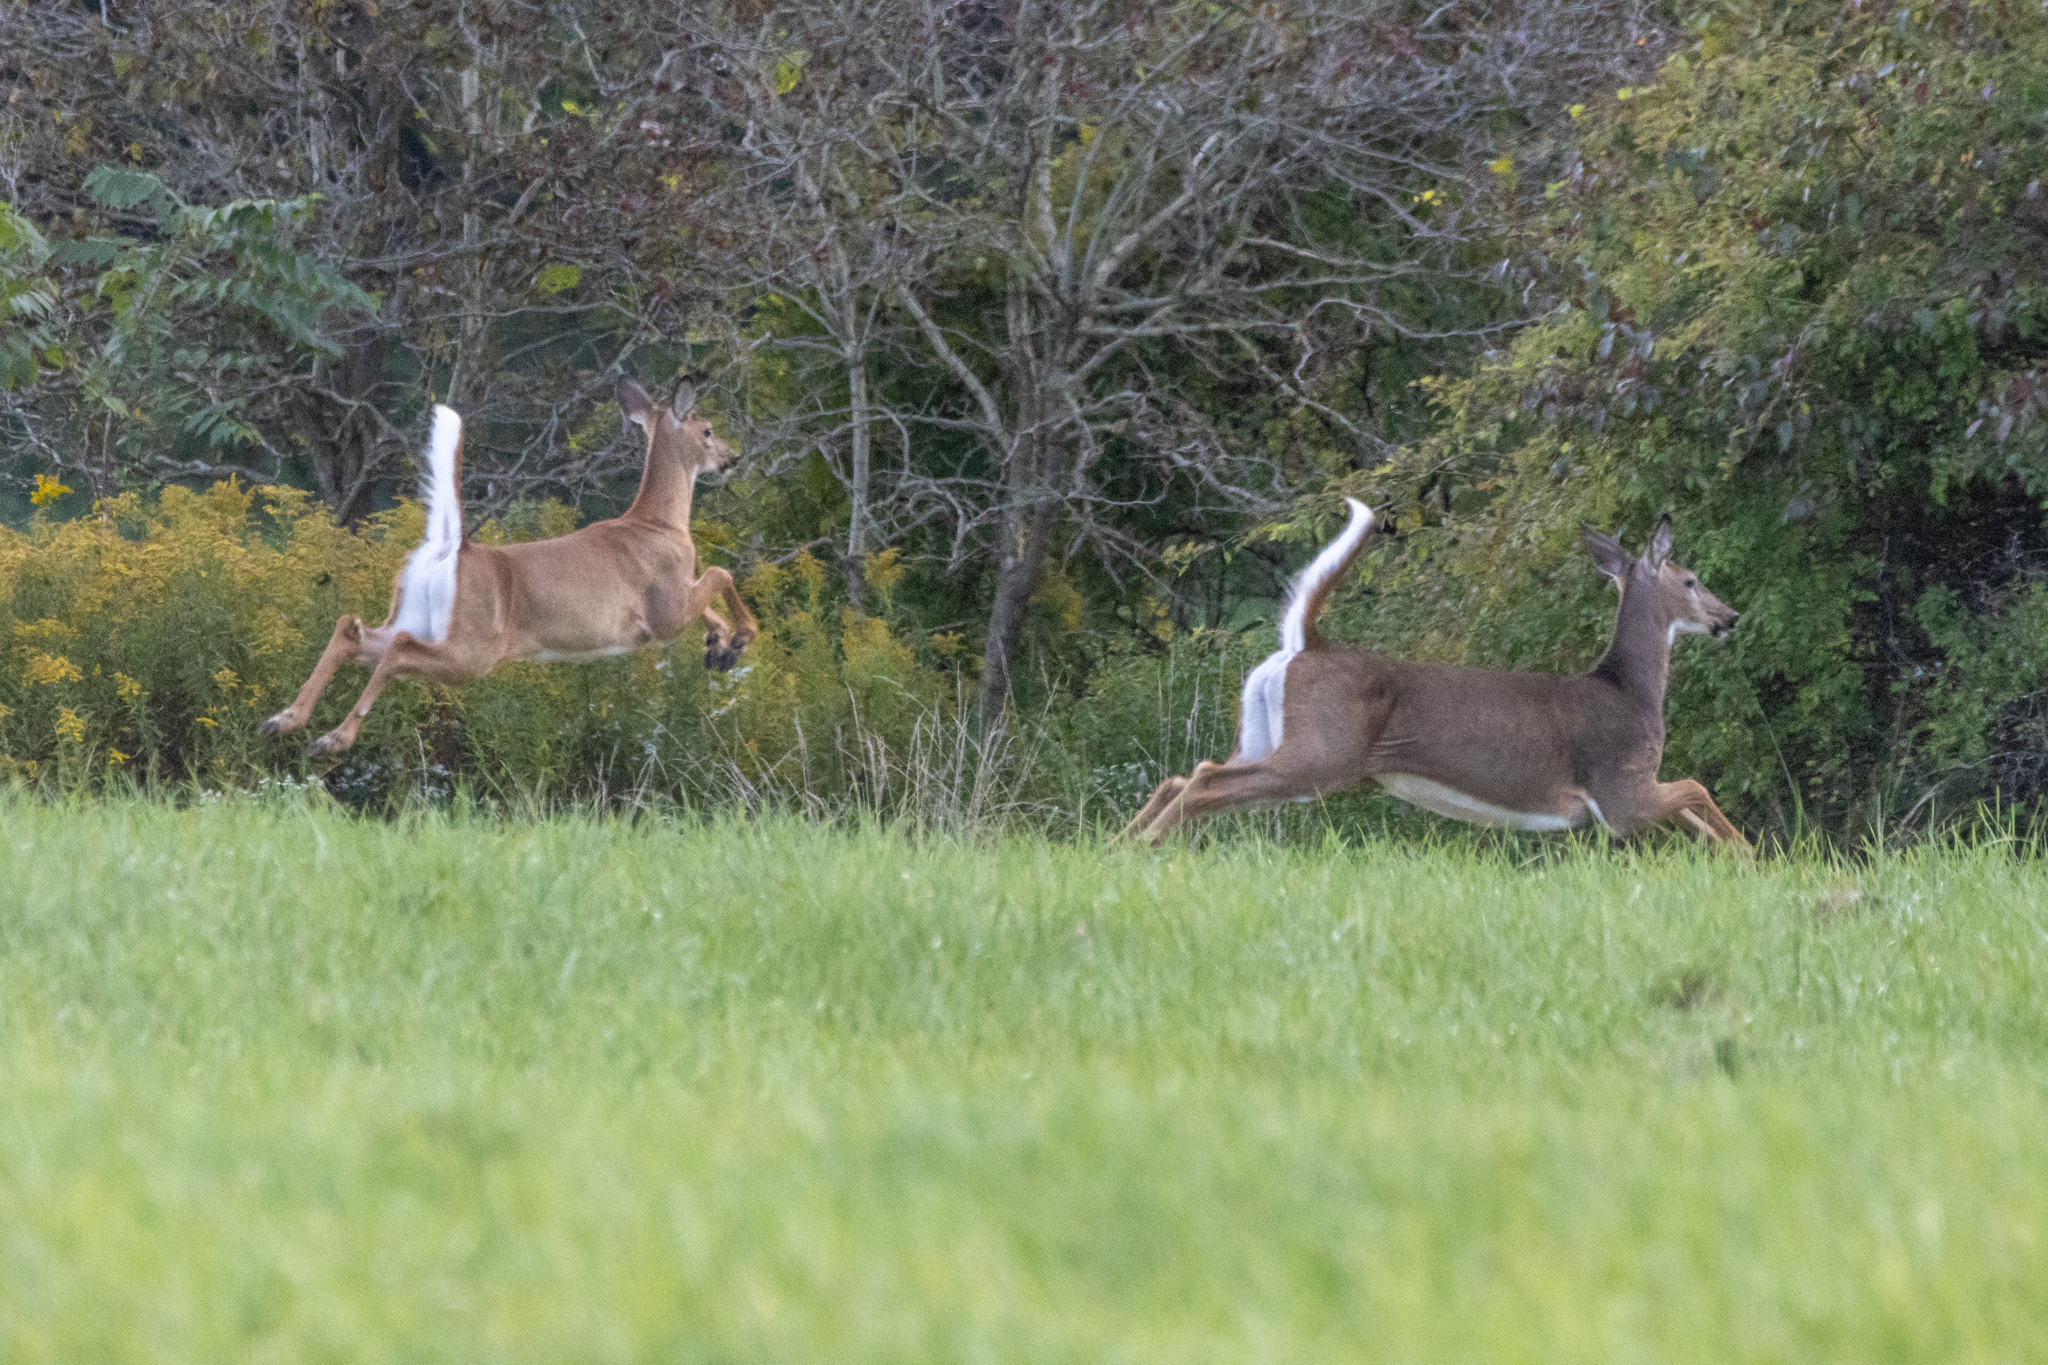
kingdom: Animalia
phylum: Chordata
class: Mammalia
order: Artiodactyla
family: Cervidae
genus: Odocoileus
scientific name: Odocoileus virginianus
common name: White-tailed deer
